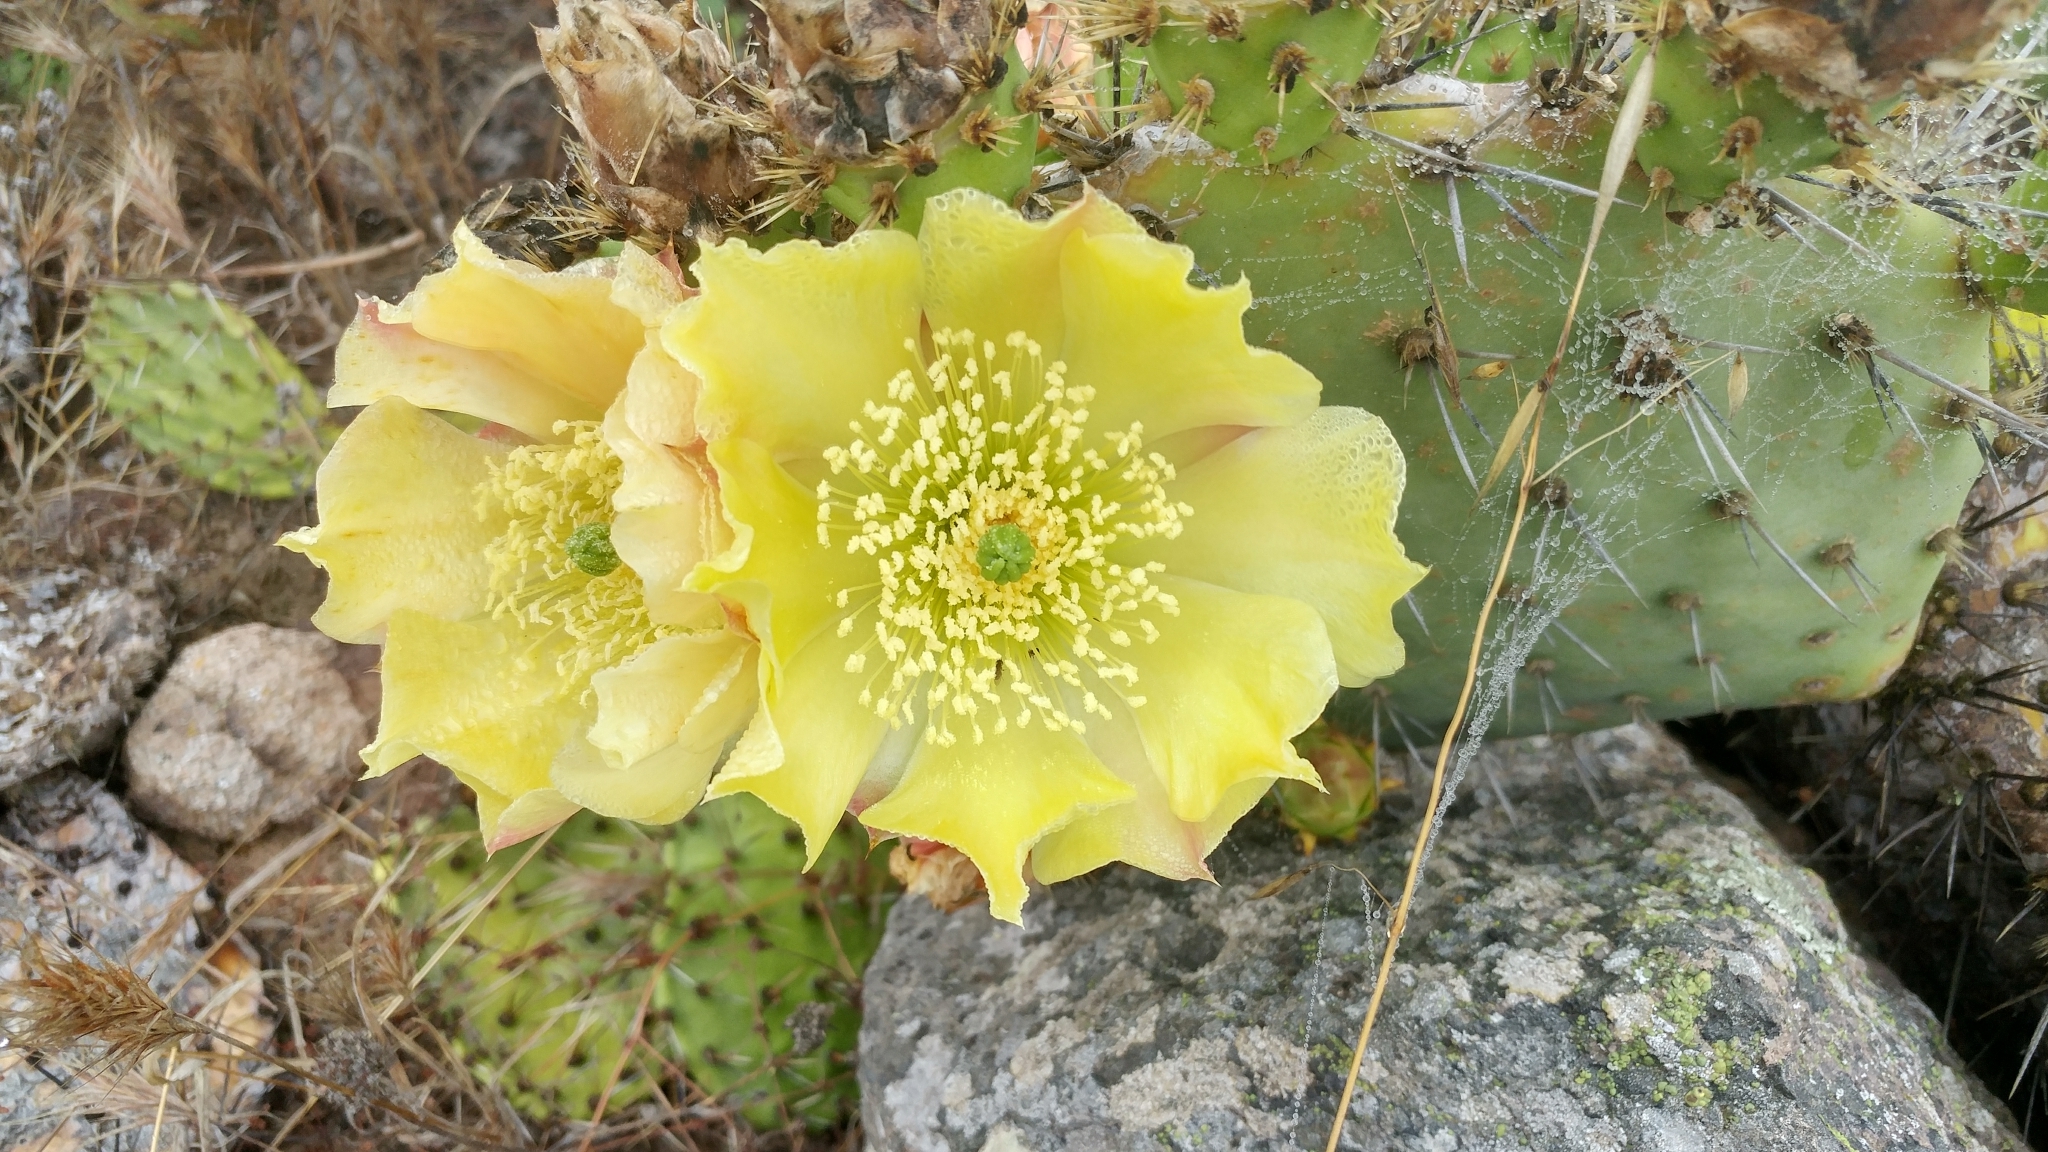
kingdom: Plantae
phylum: Tracheophyta
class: Magnoliopsida
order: Caryophyllales
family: Cactaceae
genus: Opuntia
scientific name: Opuntia littoralis
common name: Coastal prickly-pear
